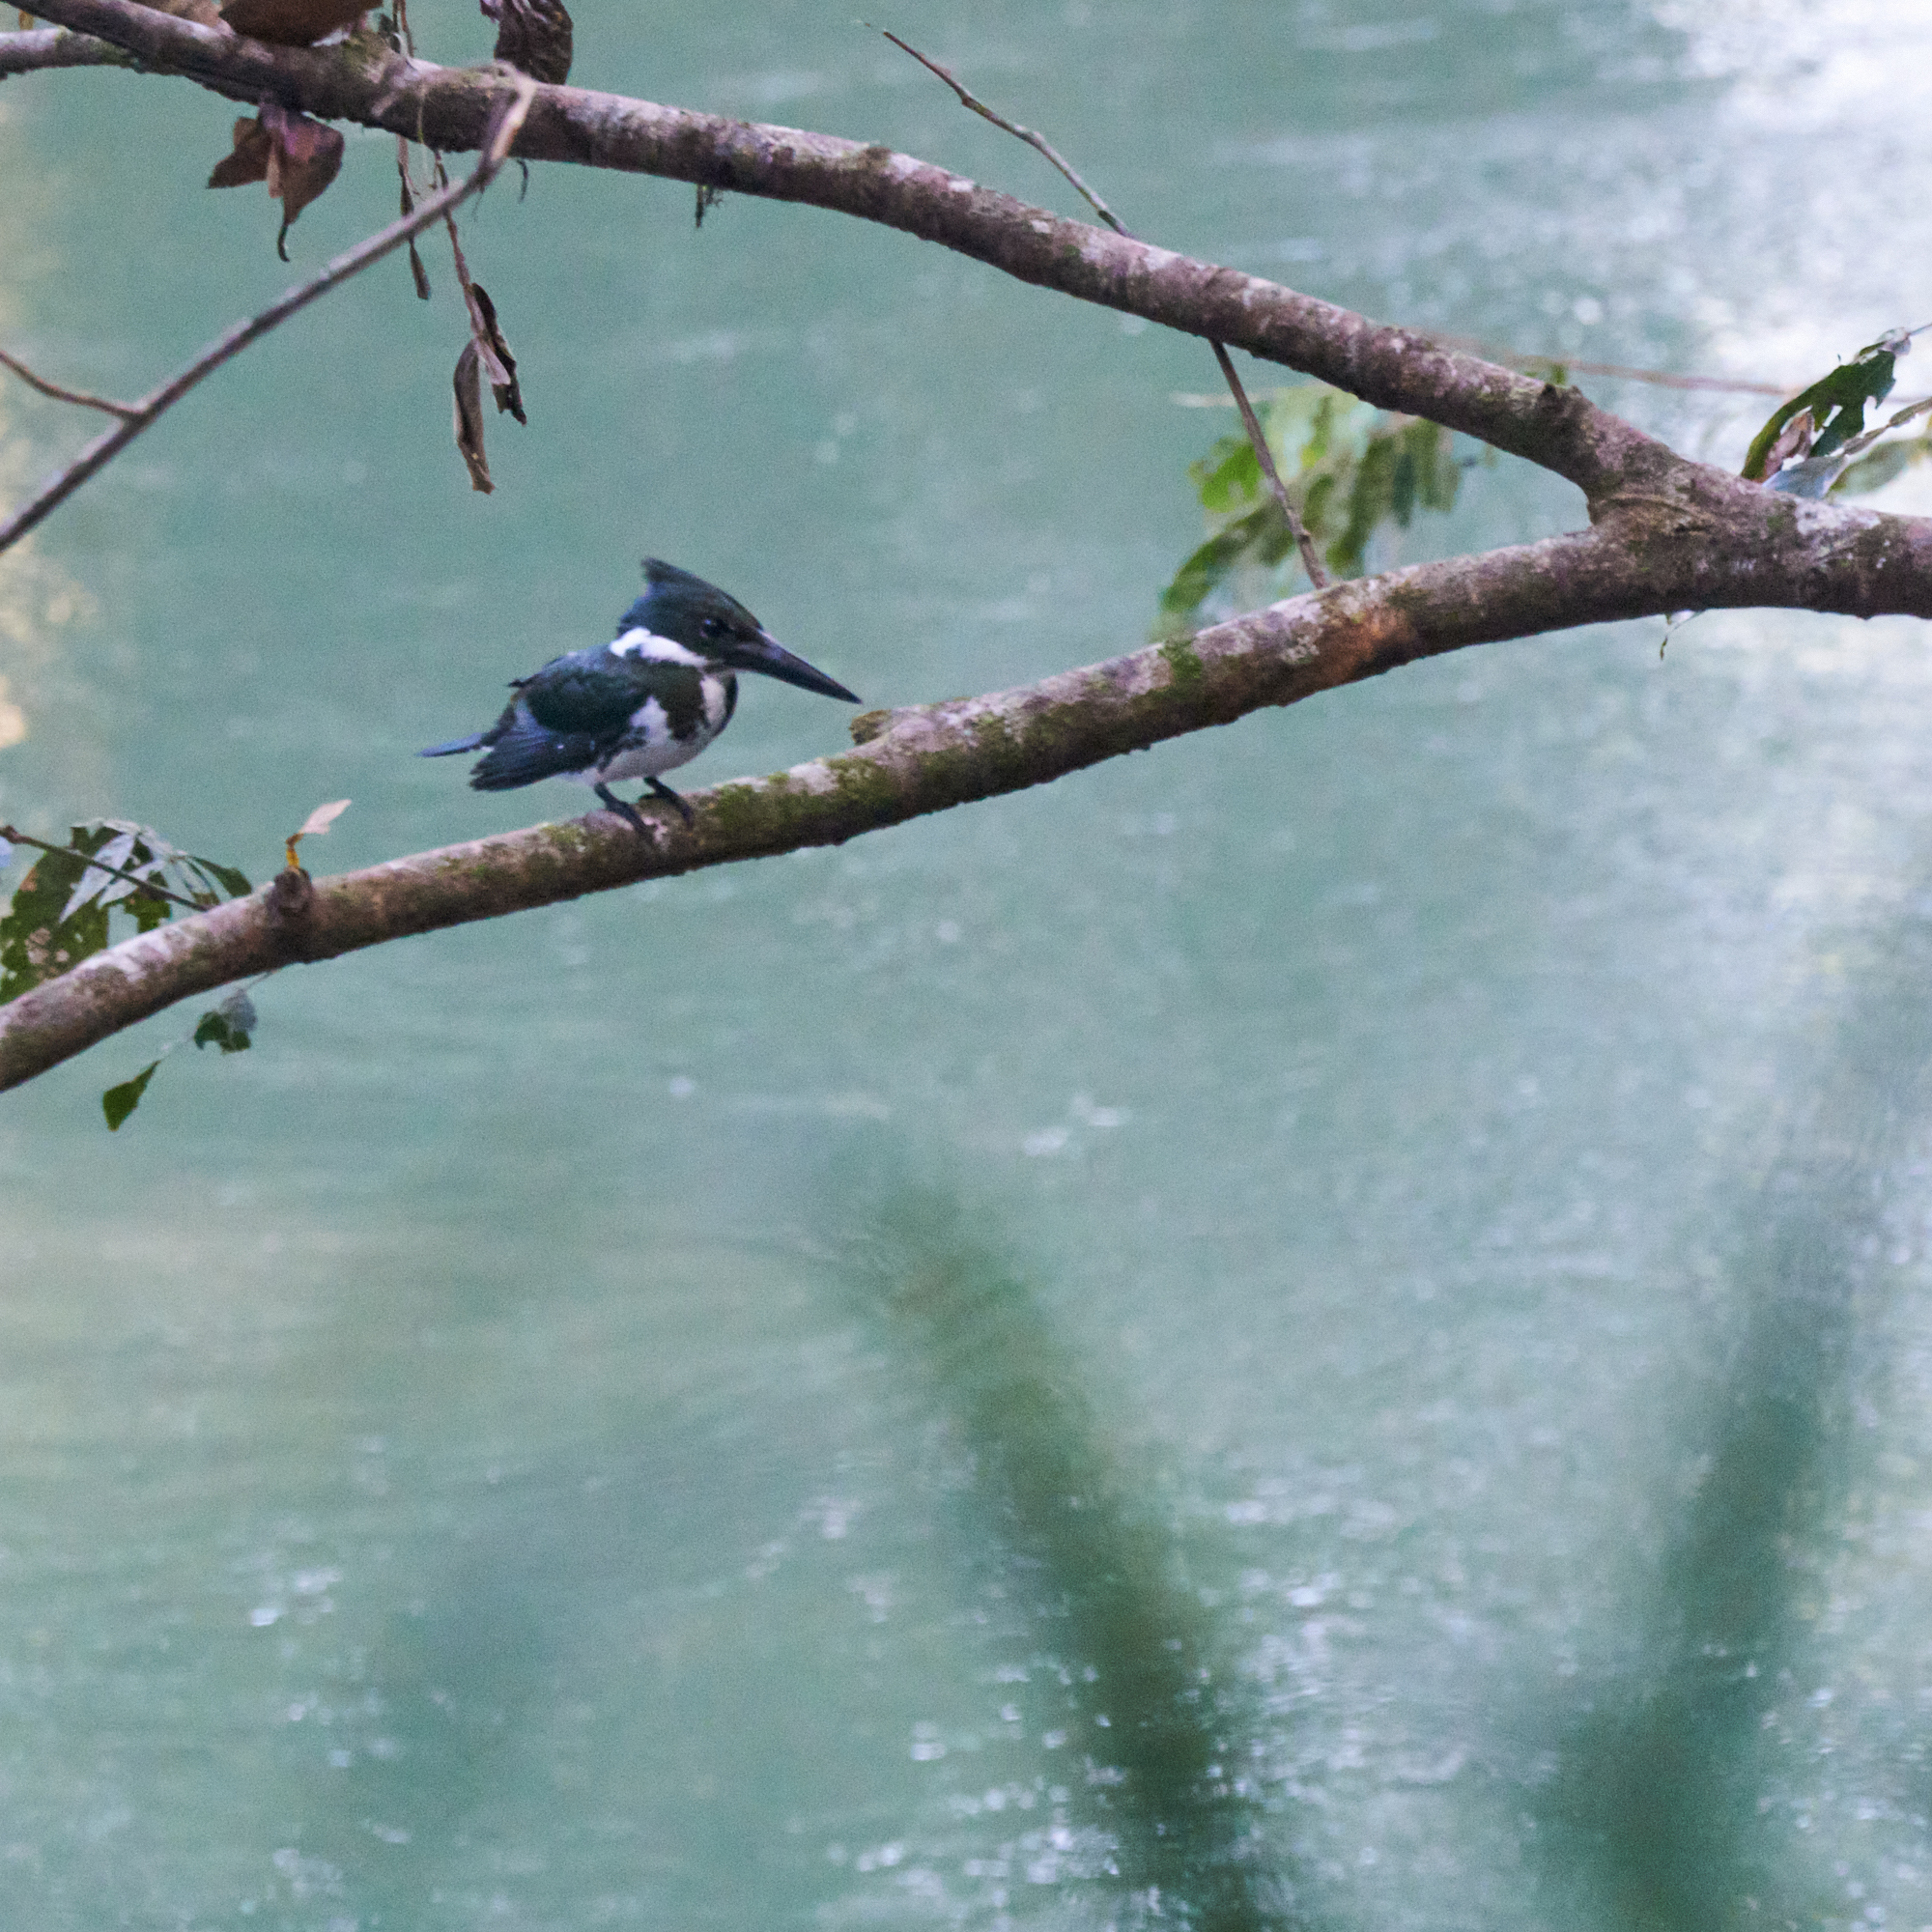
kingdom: Animalia
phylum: Chordata
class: Aves
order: Coraciiformes
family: Alcedinidae
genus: Chloroceryle
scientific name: Chloroceryle amazona
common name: Amazon kingfisher
